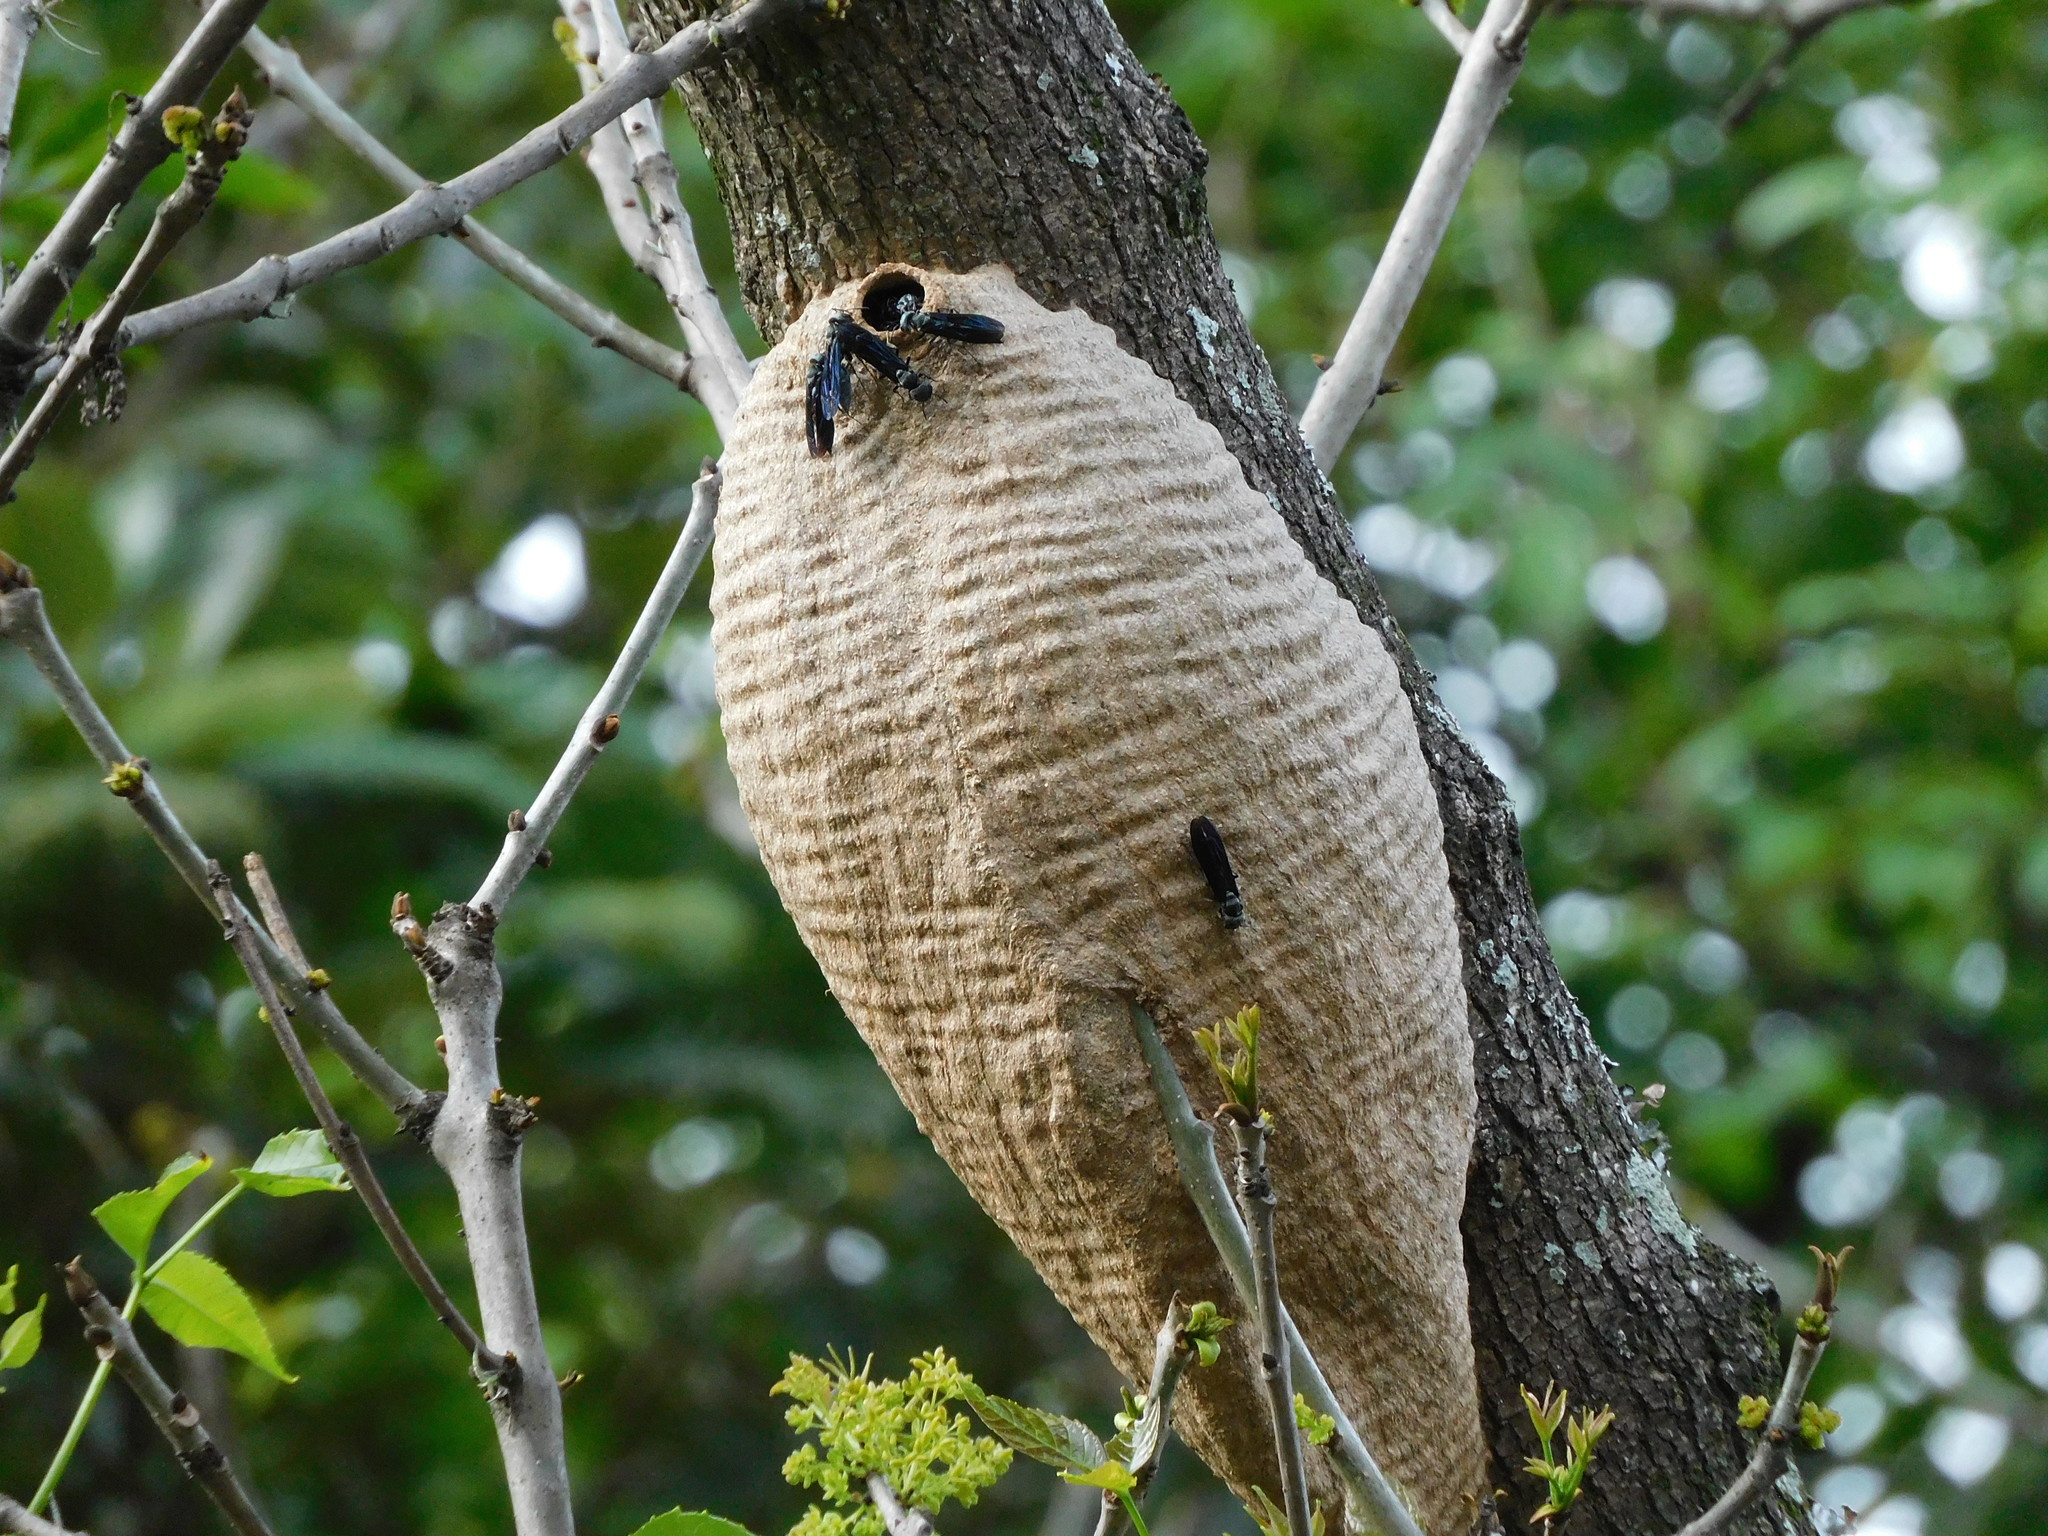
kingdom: Animalia
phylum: Arthropoda
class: Insecta
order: Hymenoptera
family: Vespidae
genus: Synoeca
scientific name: Synoeca septentrionalis
